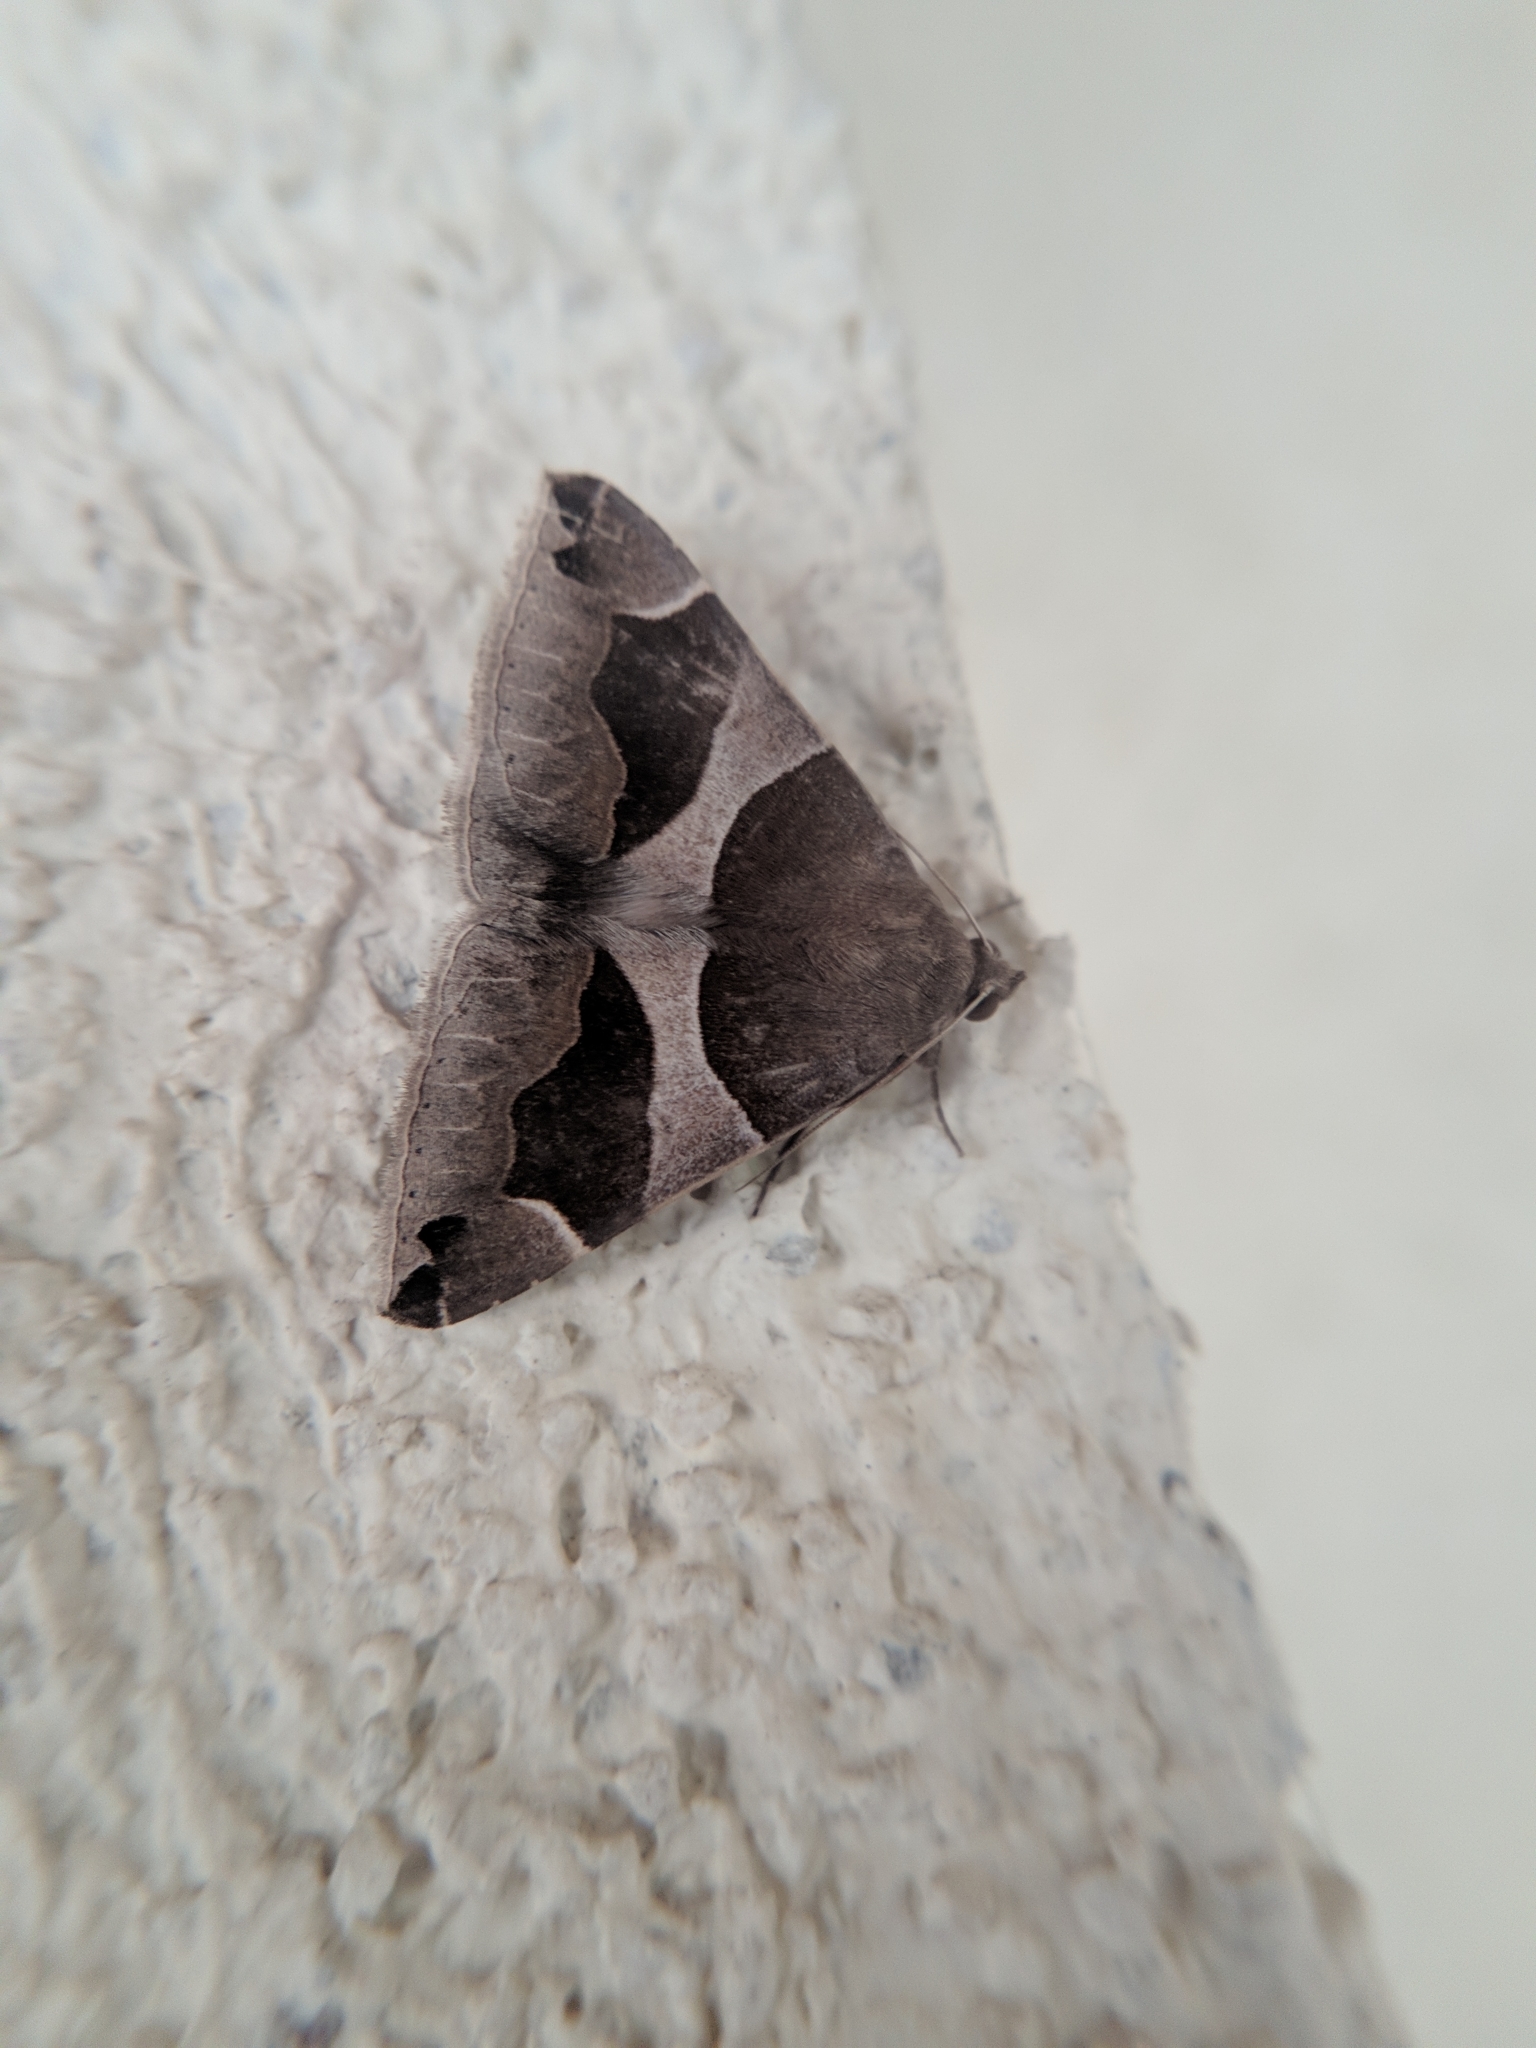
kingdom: Animalia
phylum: Arthropoda
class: Insecta
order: Lepidoptera
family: Erebidae
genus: Dysgonia
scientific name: Dysgonia algira
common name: Passenger
